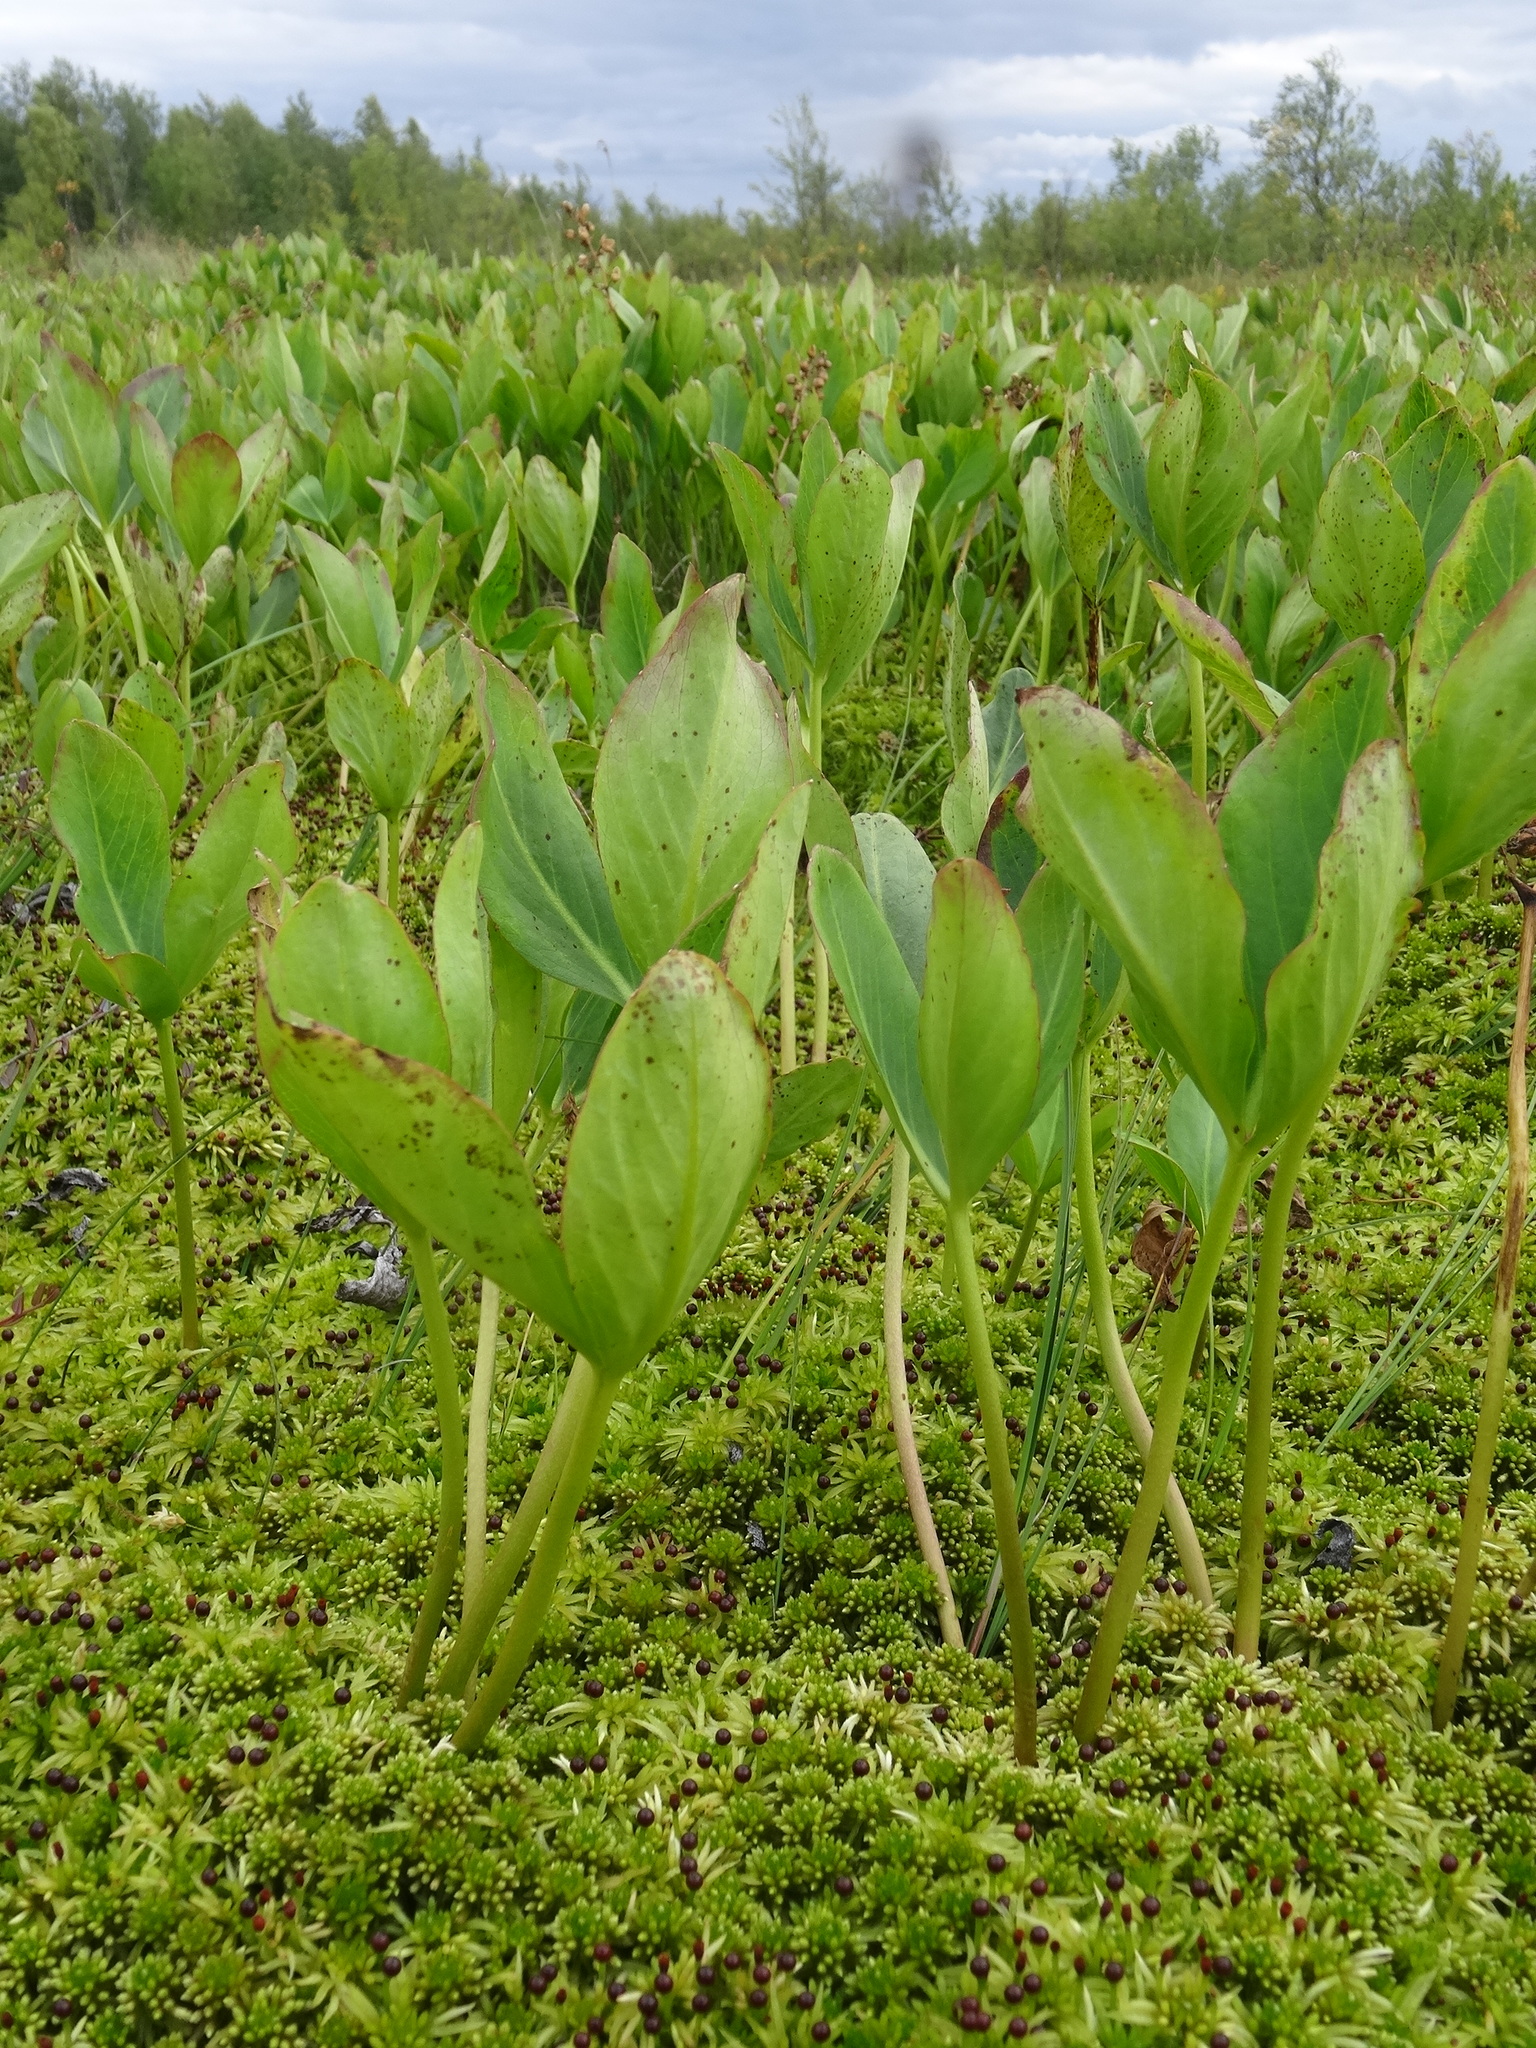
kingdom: Plantae
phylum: Tracheophyta
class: Magnoliopsida
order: Asterales
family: Menyanthaceae
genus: Menyanthes
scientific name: Menyanthes trifoliata
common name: Bogbean
